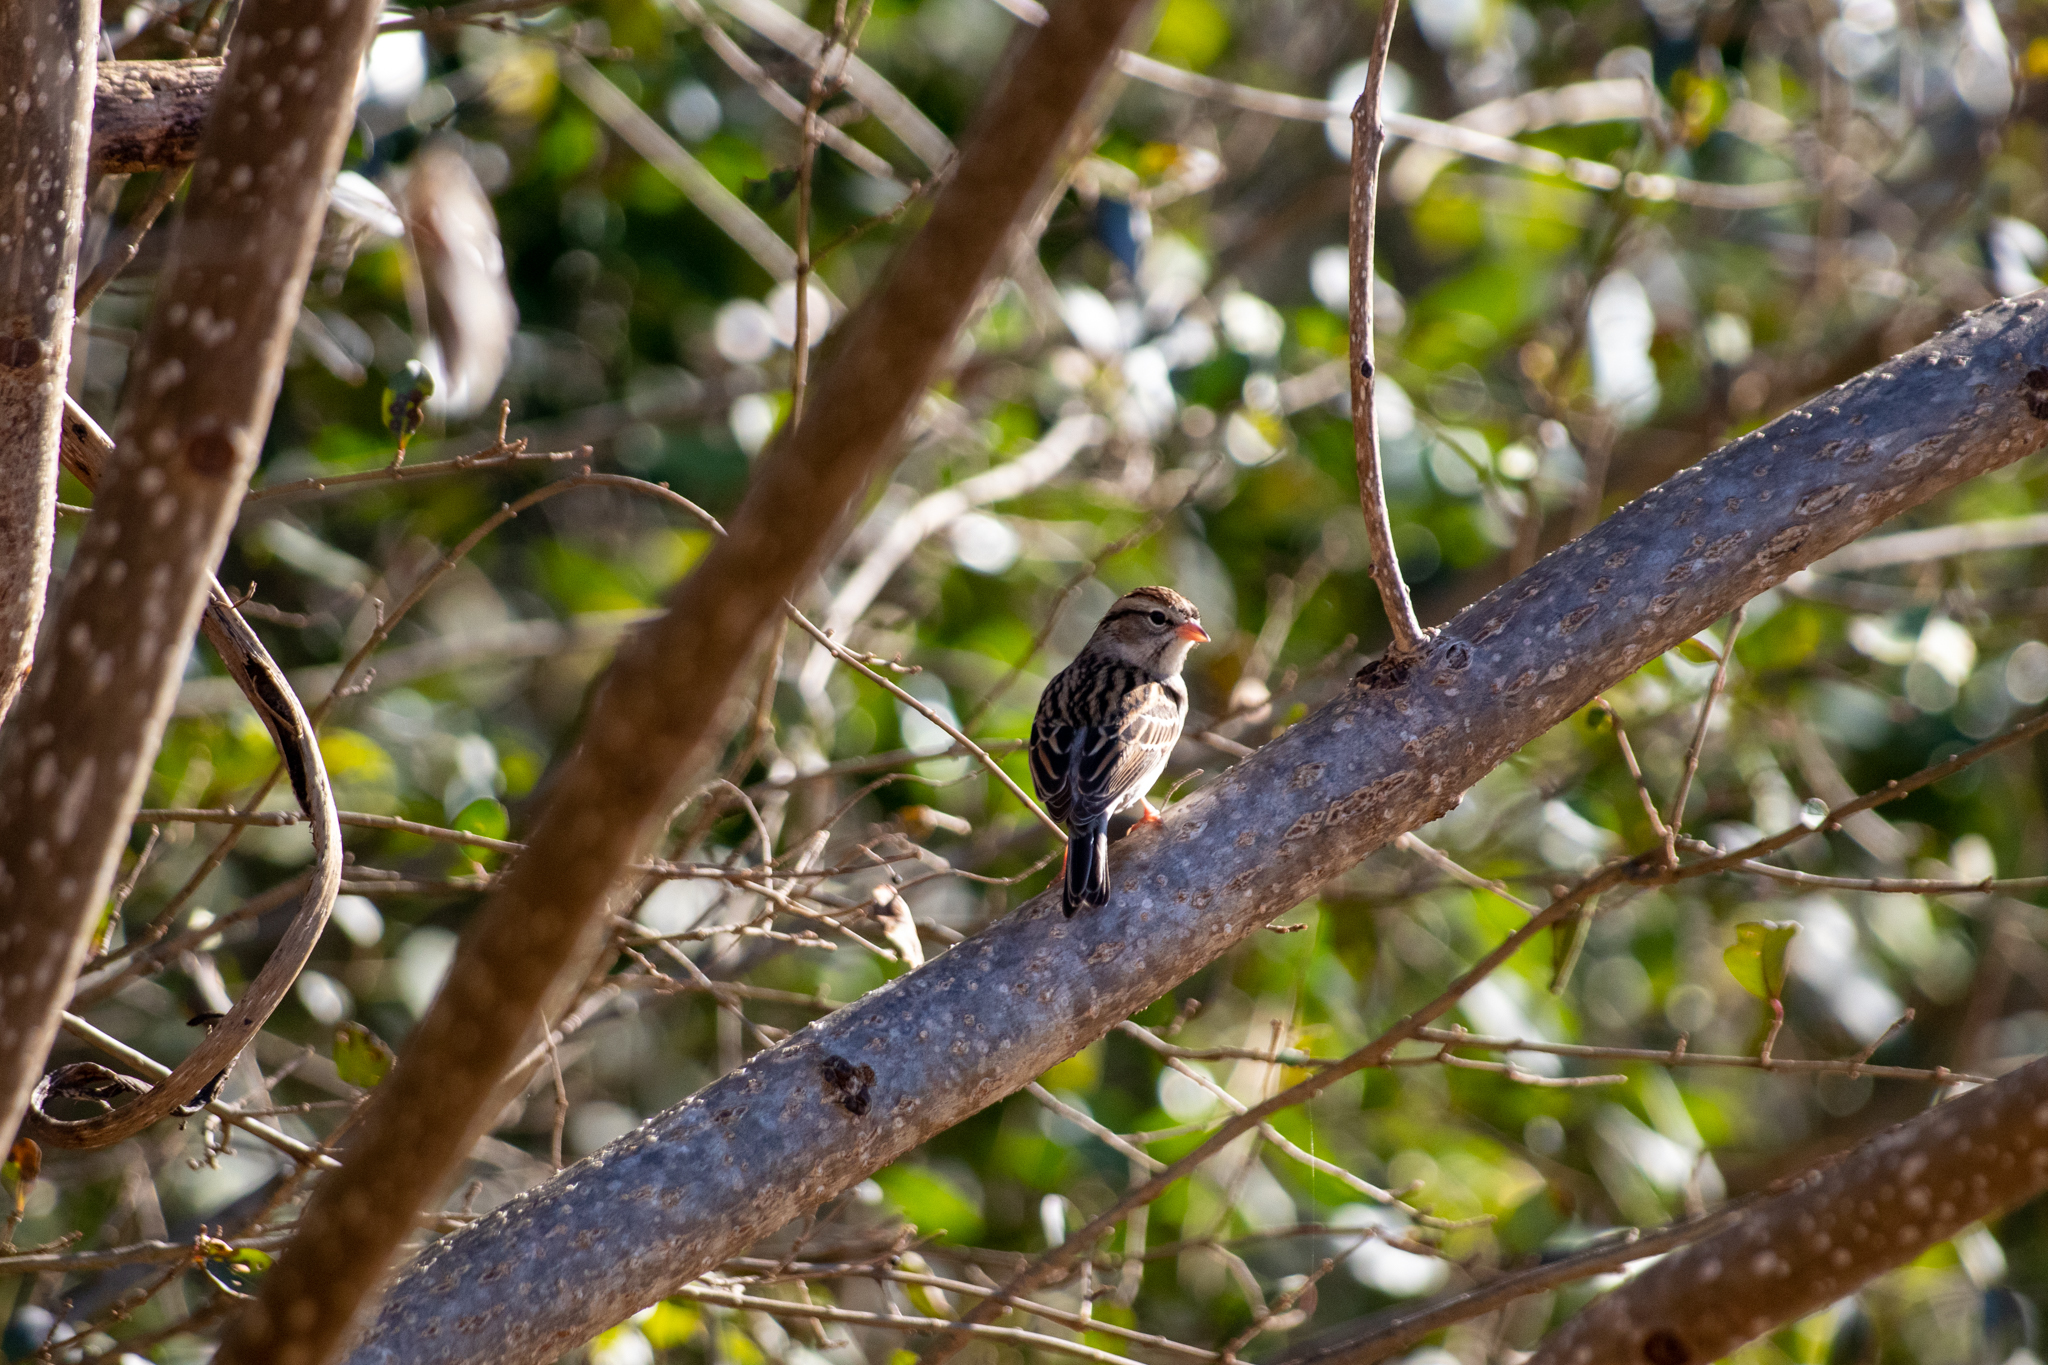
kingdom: Animalia
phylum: Chordata
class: Aves
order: Passeriformes
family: Passerellidae
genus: Spizella
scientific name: Spizella passerina
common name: Chipping sparrow
